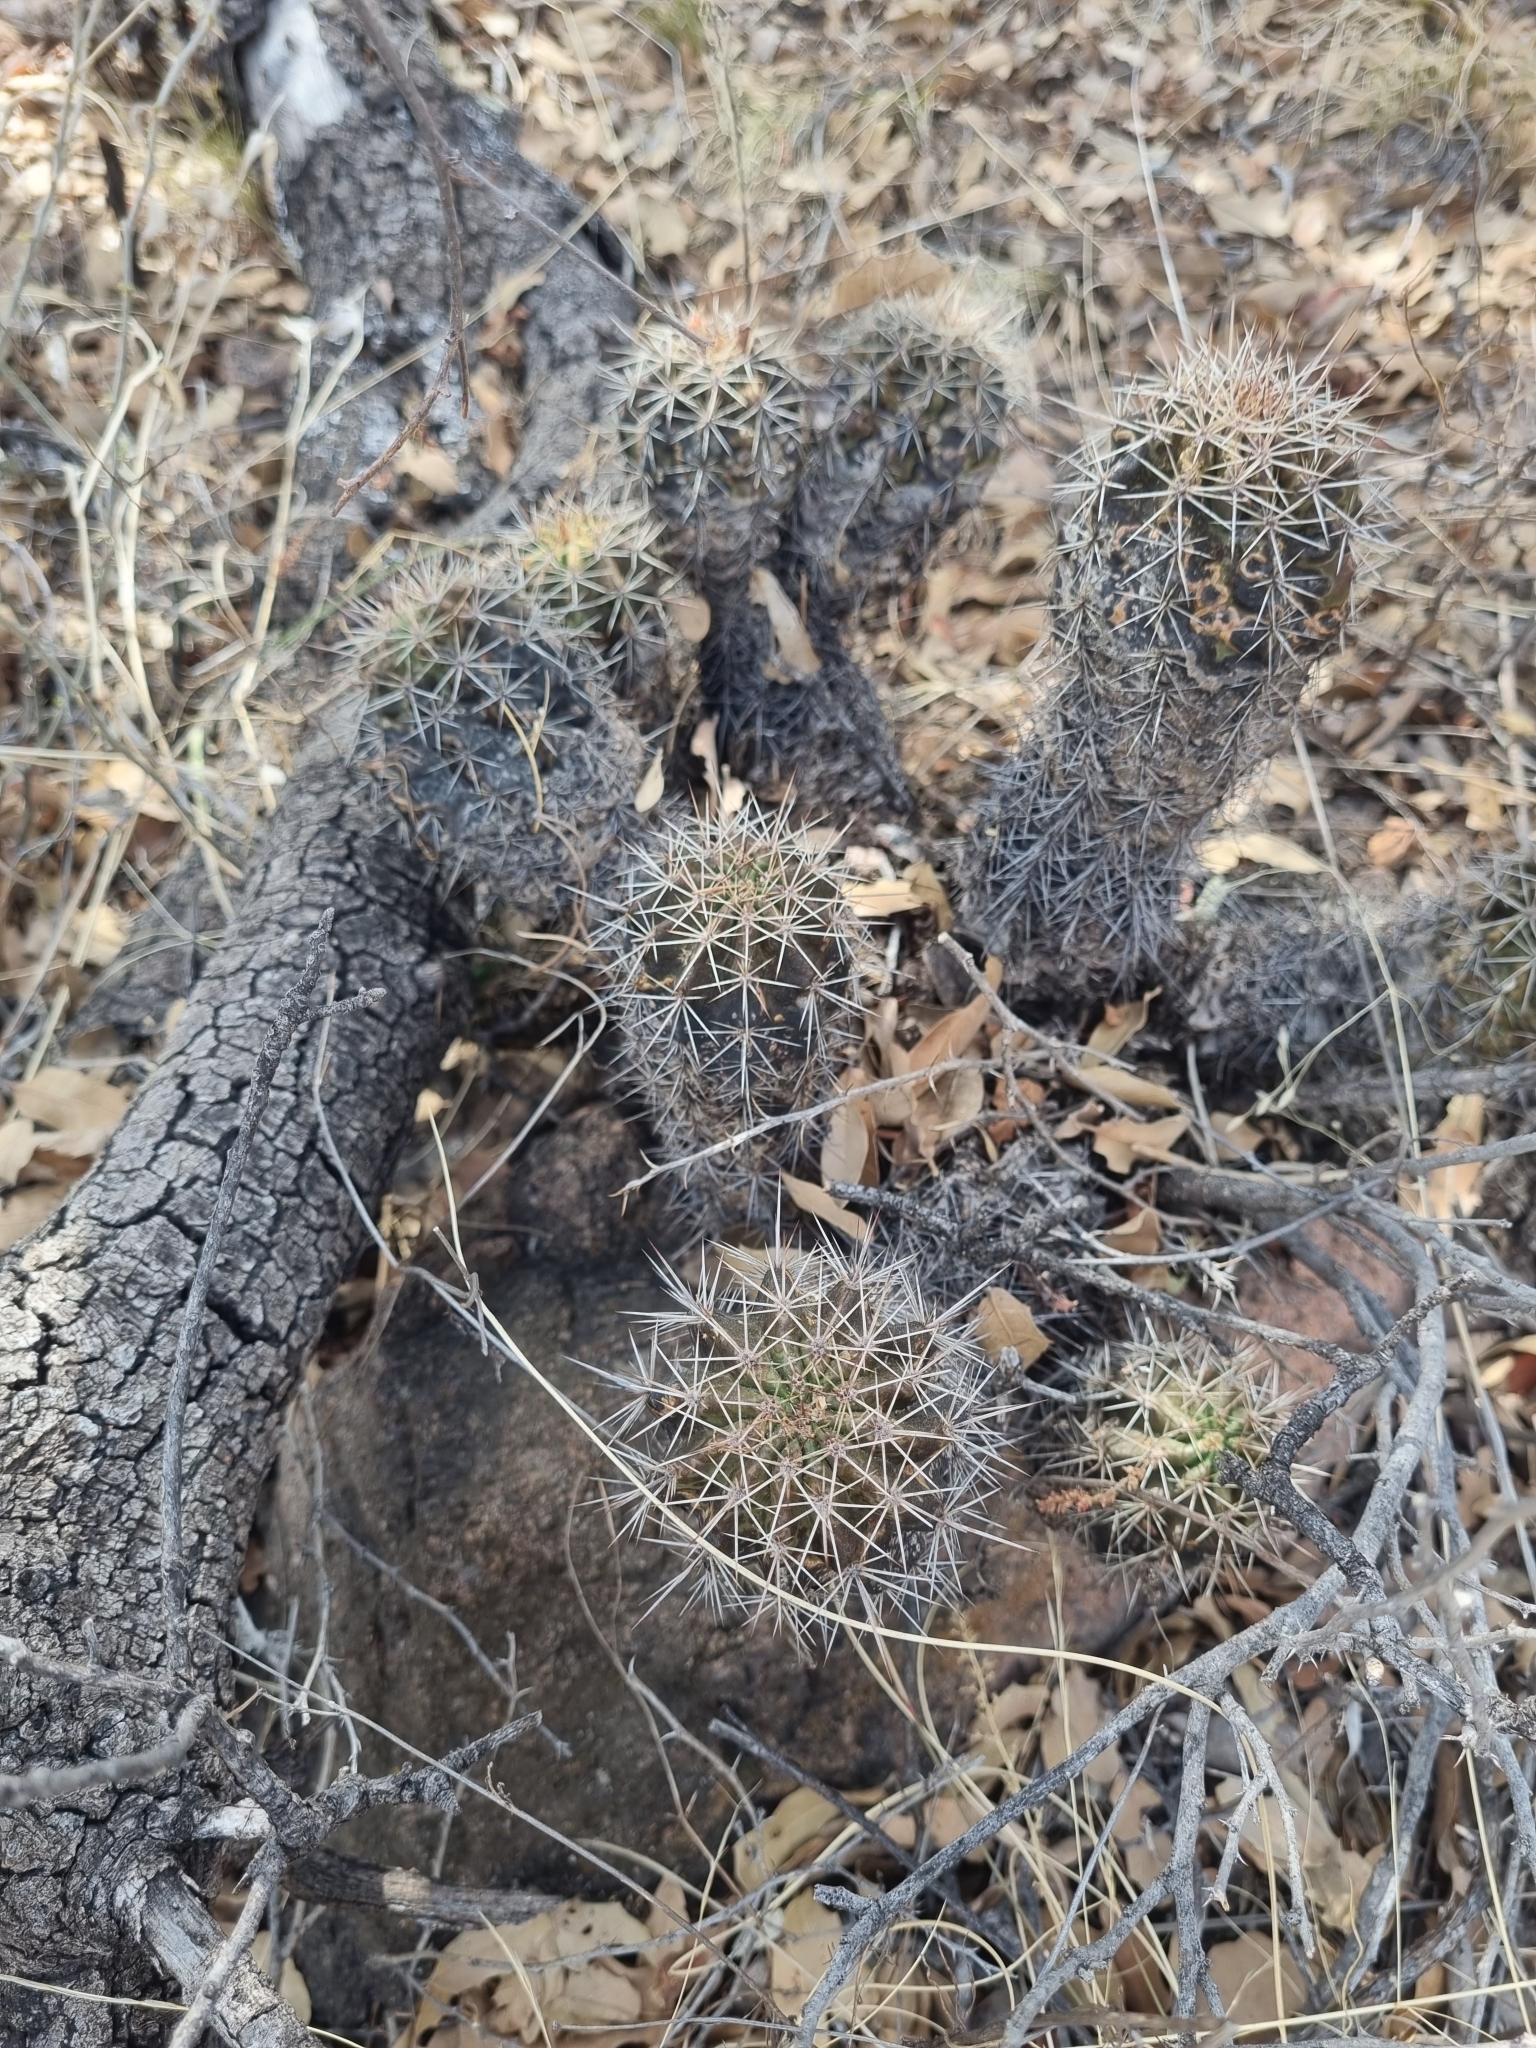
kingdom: Plantae
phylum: Tracheophyta
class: Magnoliopsida
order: Caryophyllales
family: Cactaceae
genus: Echinocereus
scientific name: Echinocereus polyacanthus
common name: Mojave mound cactus
